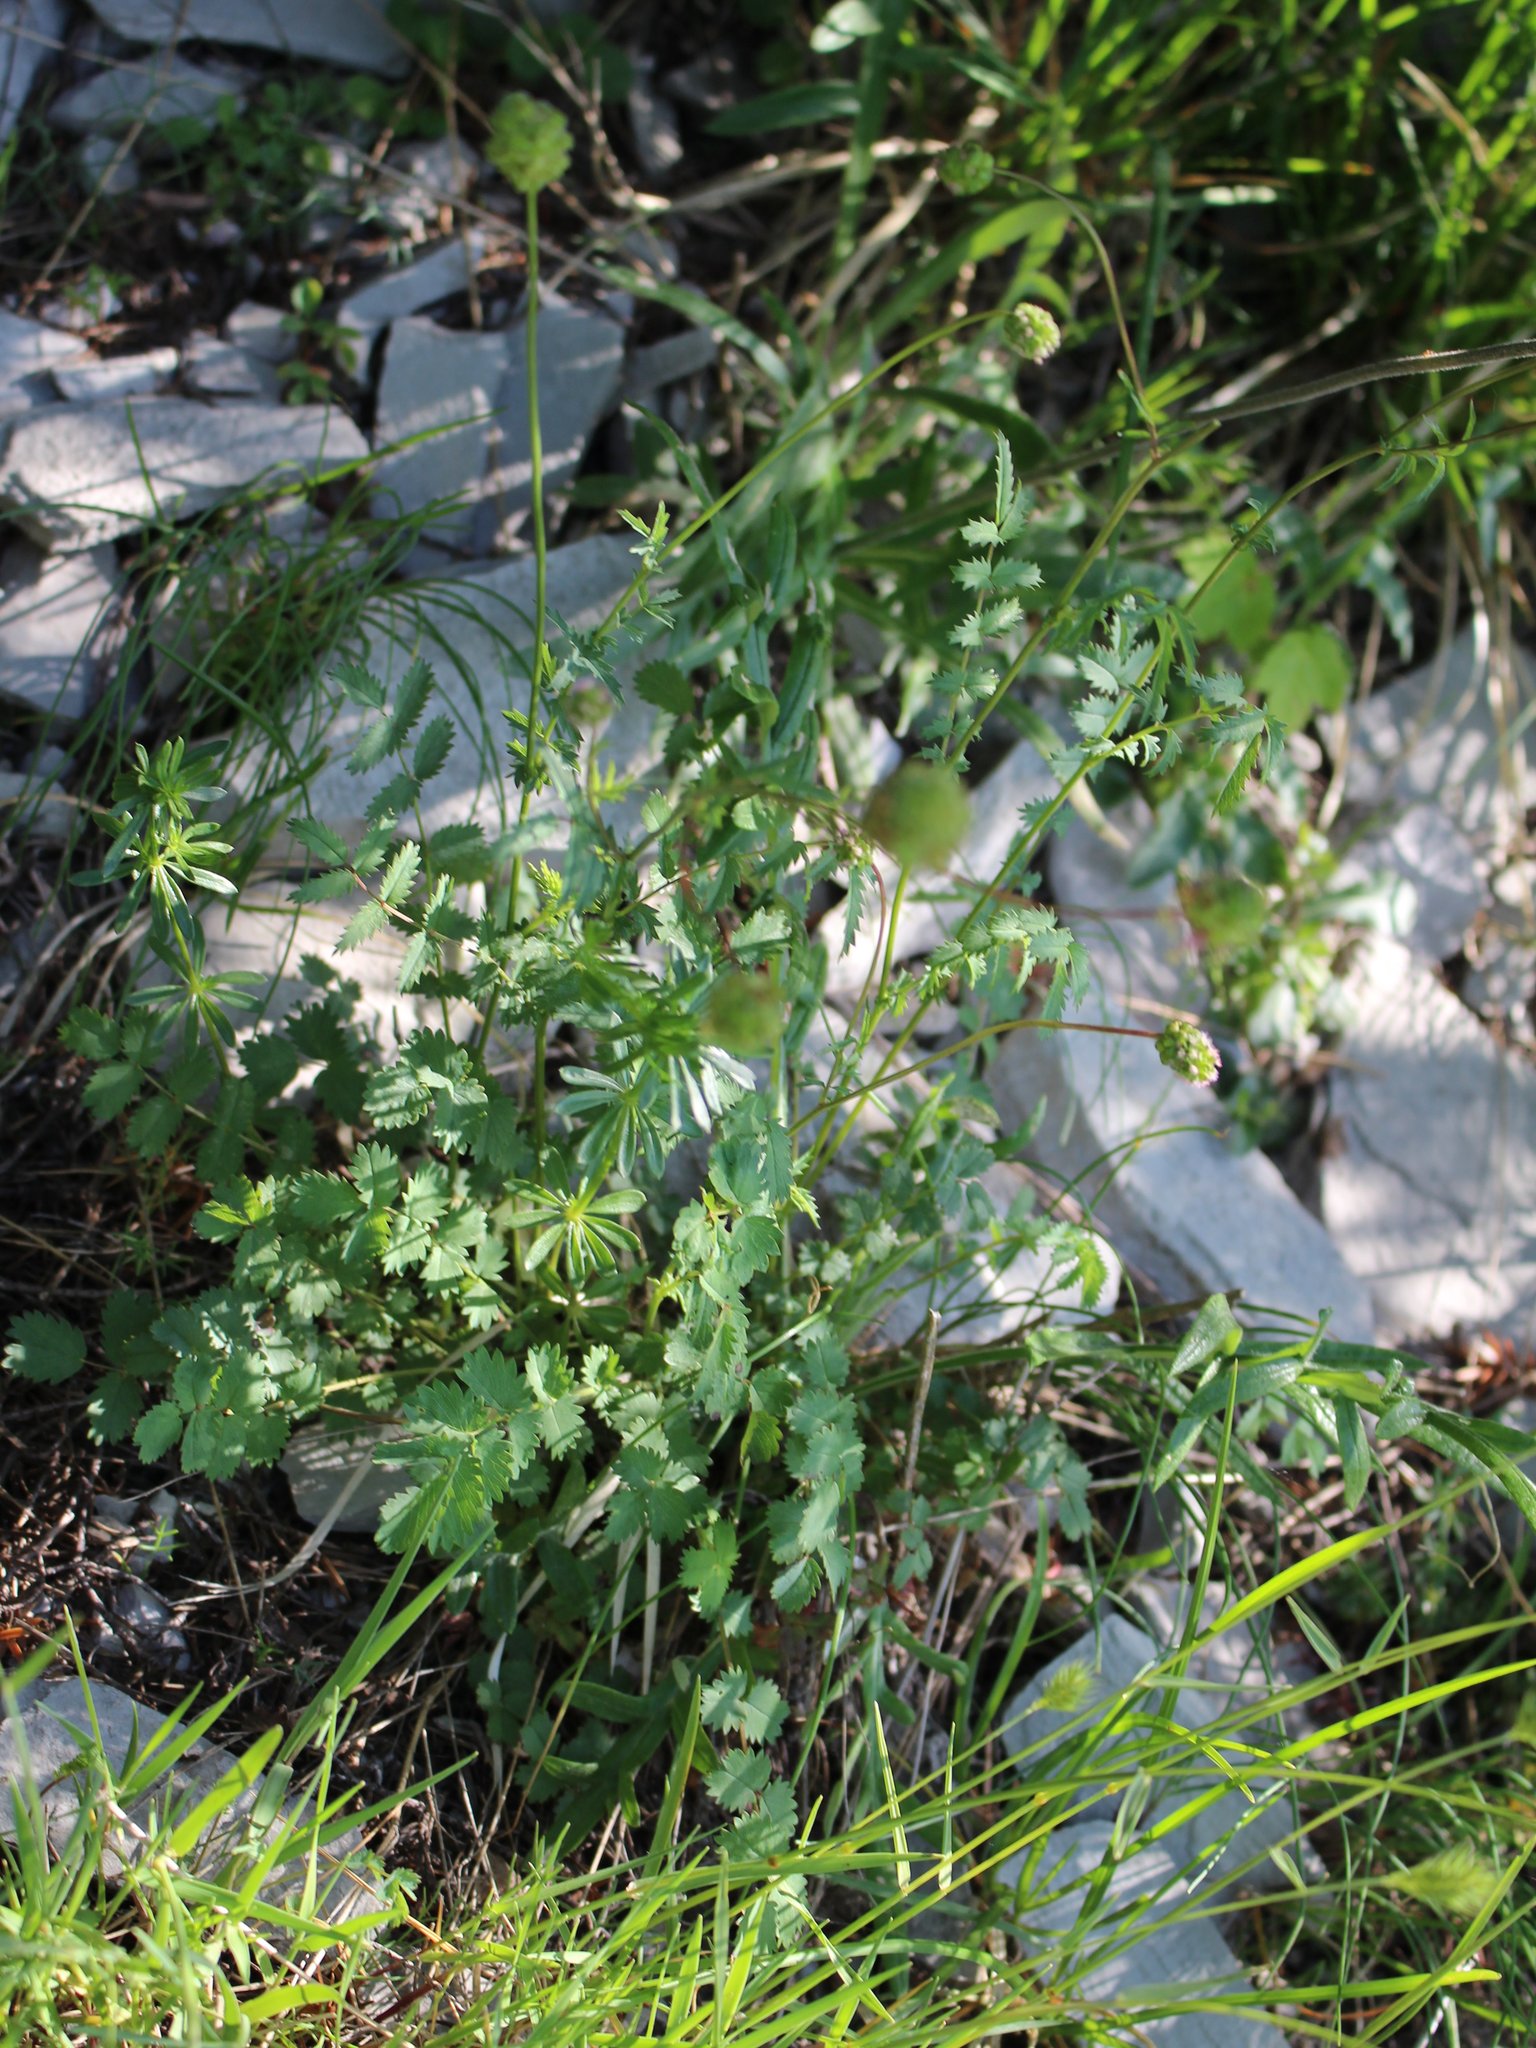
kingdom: Plantae
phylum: Tracheophyta
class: Magnoliopsida
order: Rosales
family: Rosaceae
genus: Poterium
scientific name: Poterium sanguisorba
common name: Salad burnet
